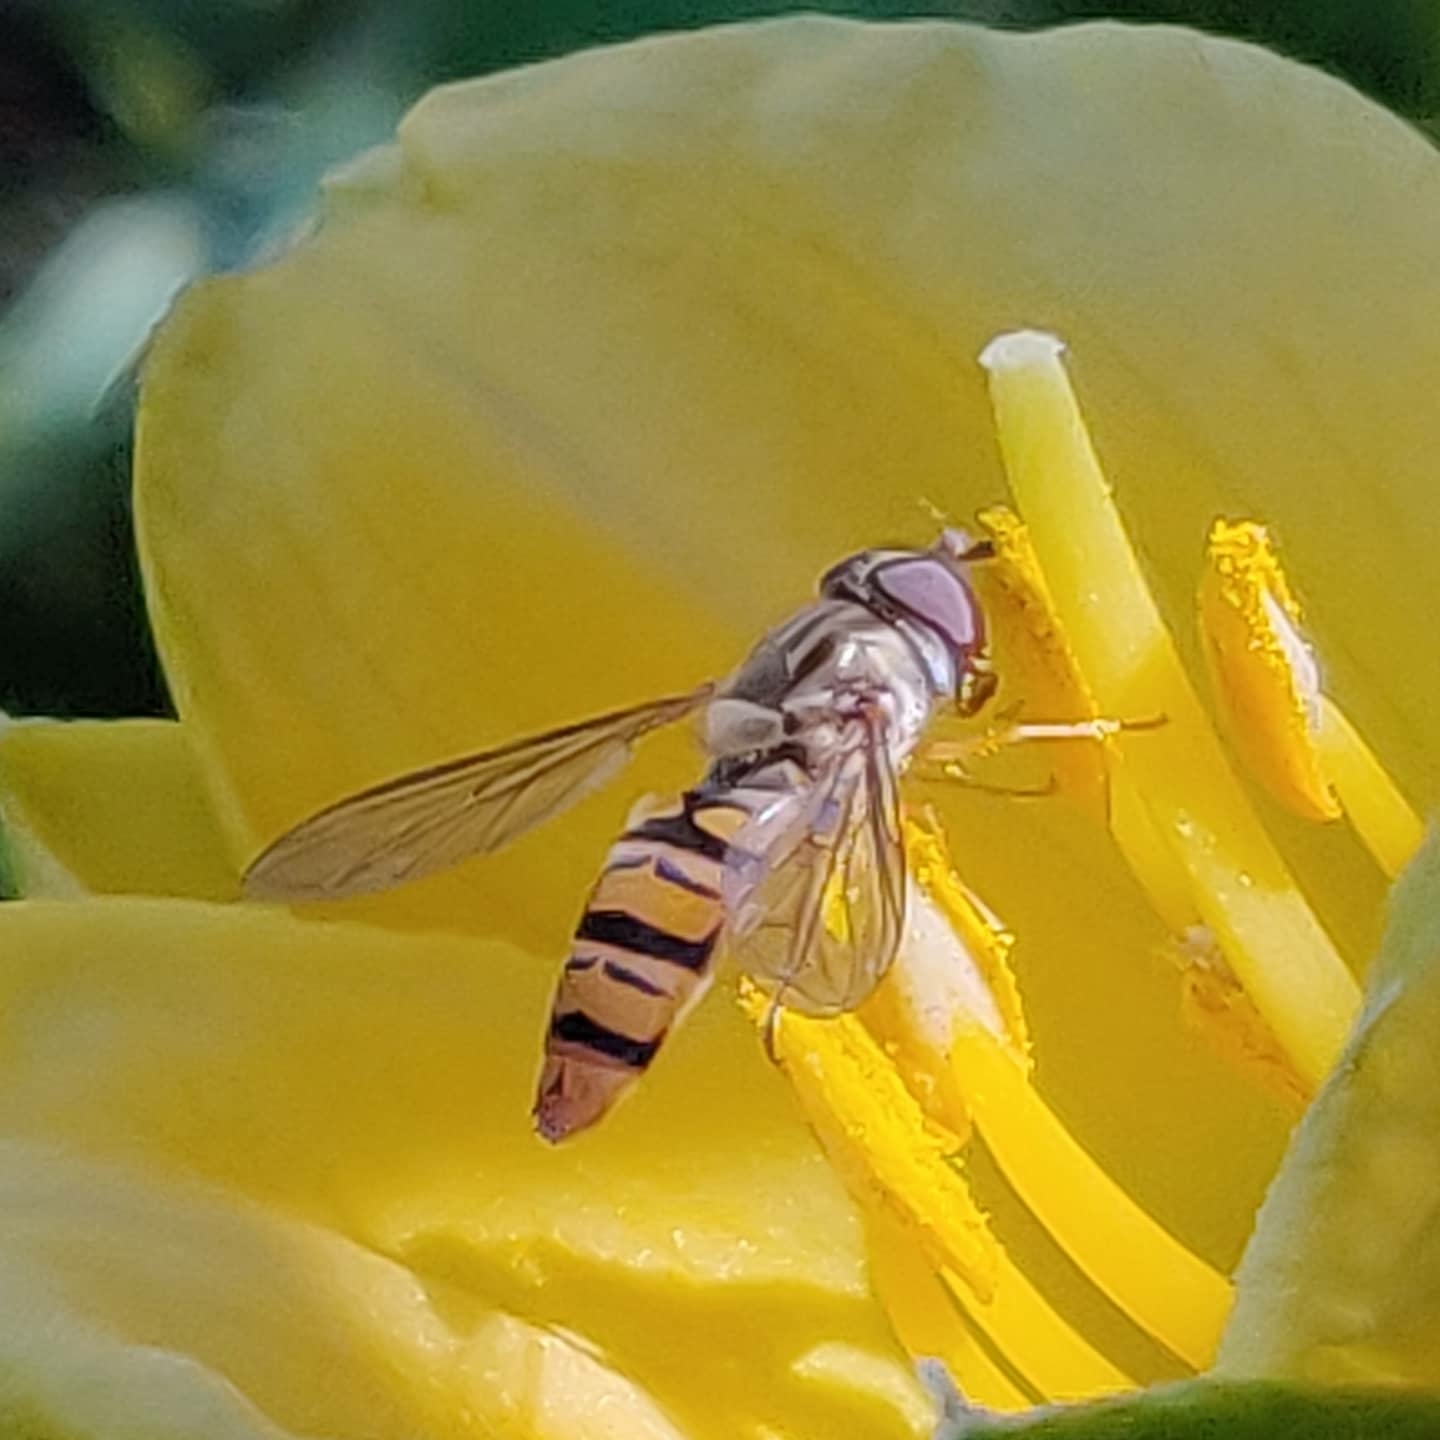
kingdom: Animalia
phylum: Arthropoda
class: Insecta
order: Diptera
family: Syrphidae
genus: Episyrphus
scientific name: Episyrphus balteatus
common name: Marmalade hoverfly
